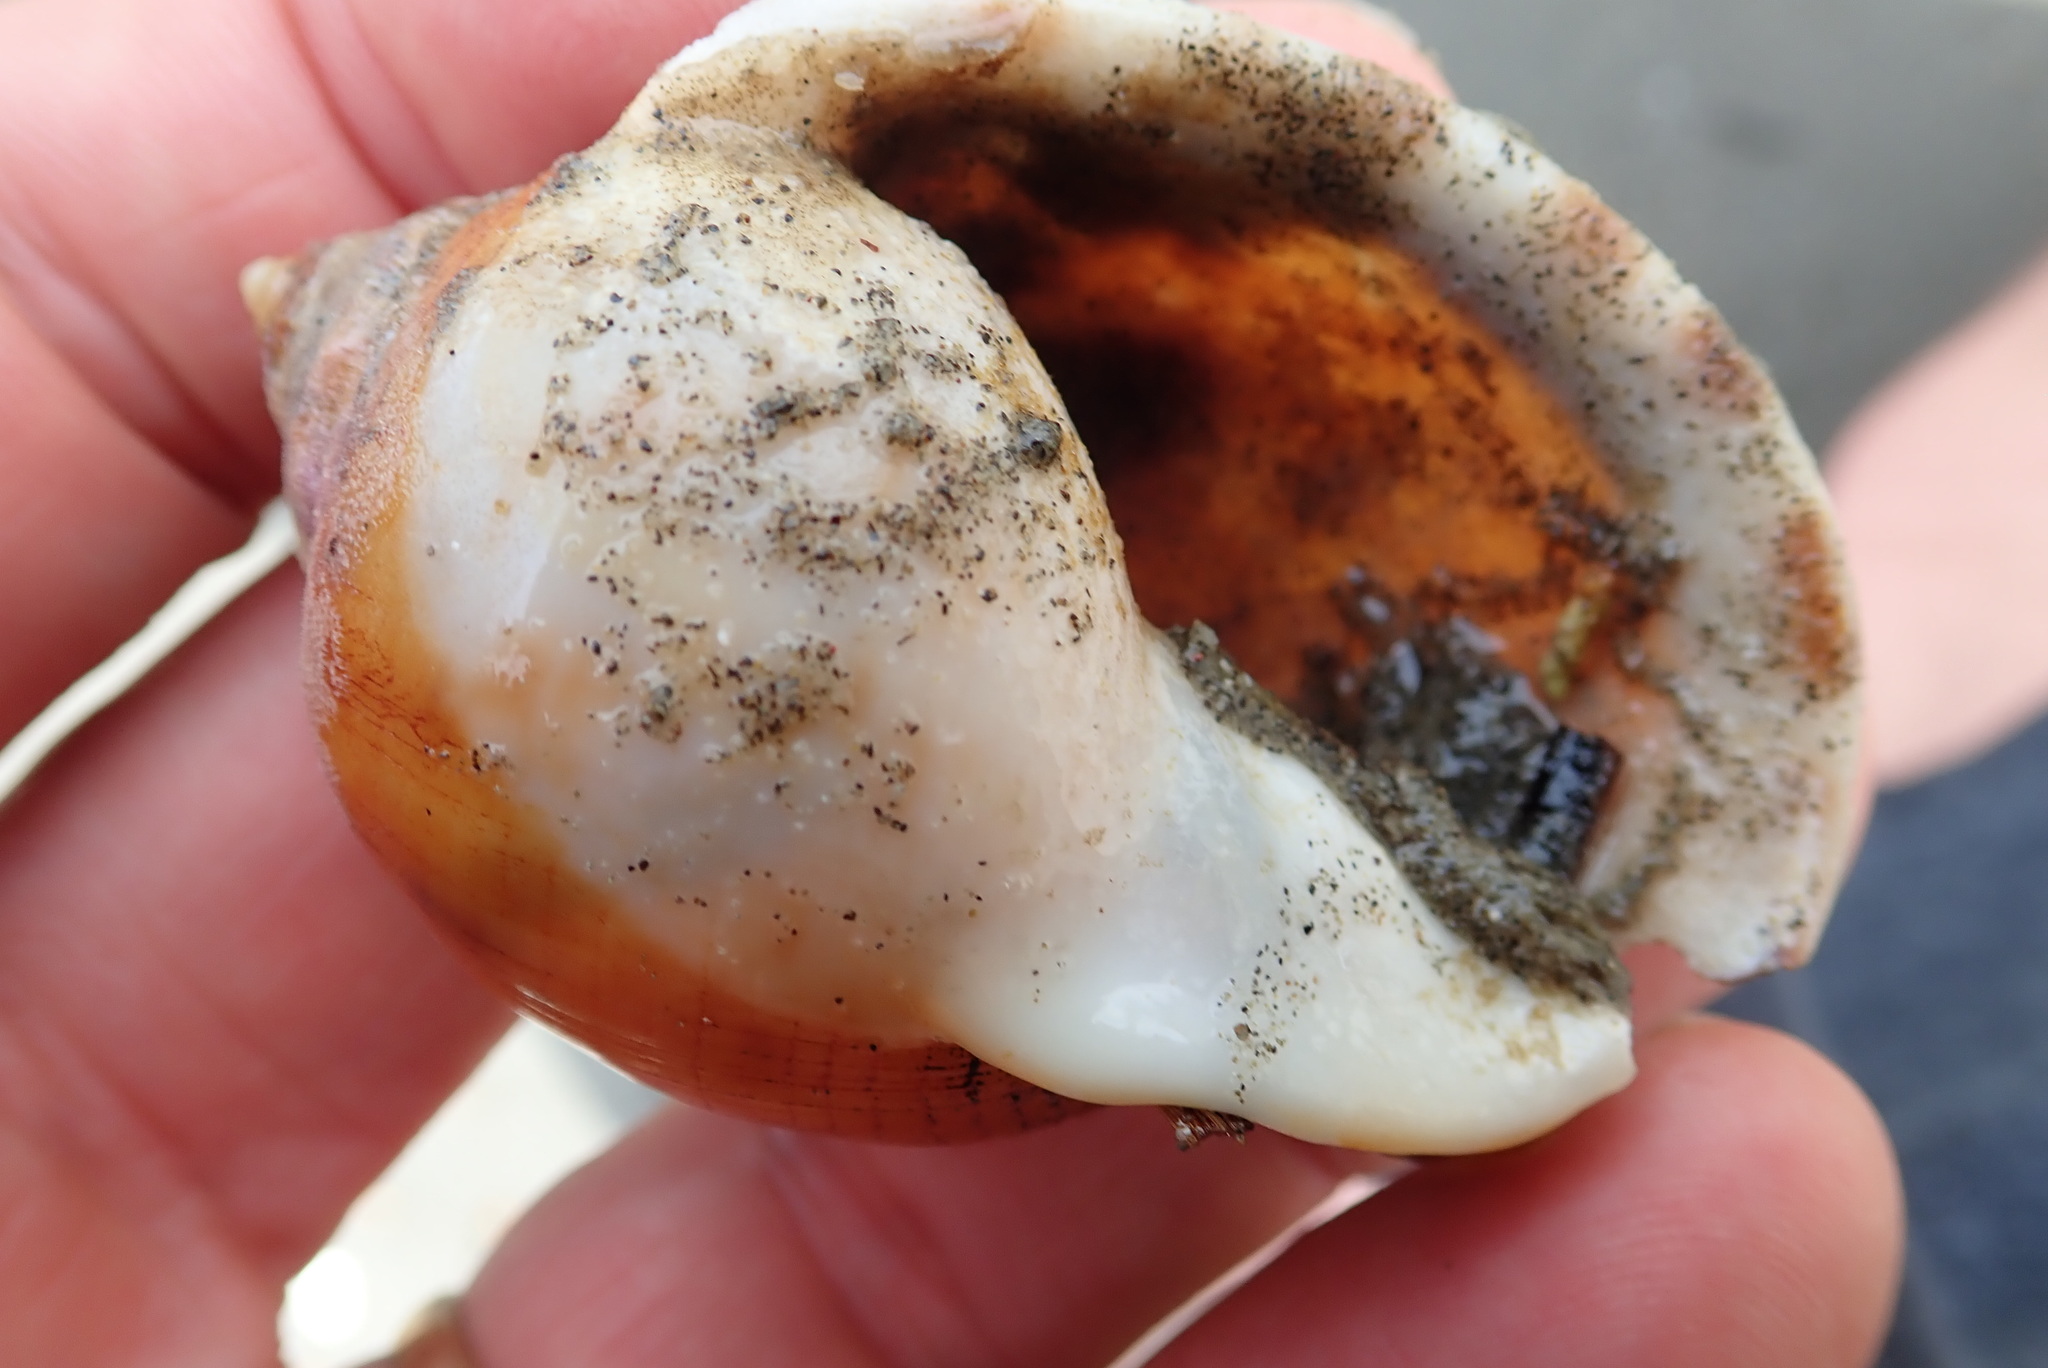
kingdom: Animalia
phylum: Mollusca
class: Gastropoda
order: Littorinimorpha
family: Cassidae
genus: Semicassis
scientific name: Semicassis pyrum
